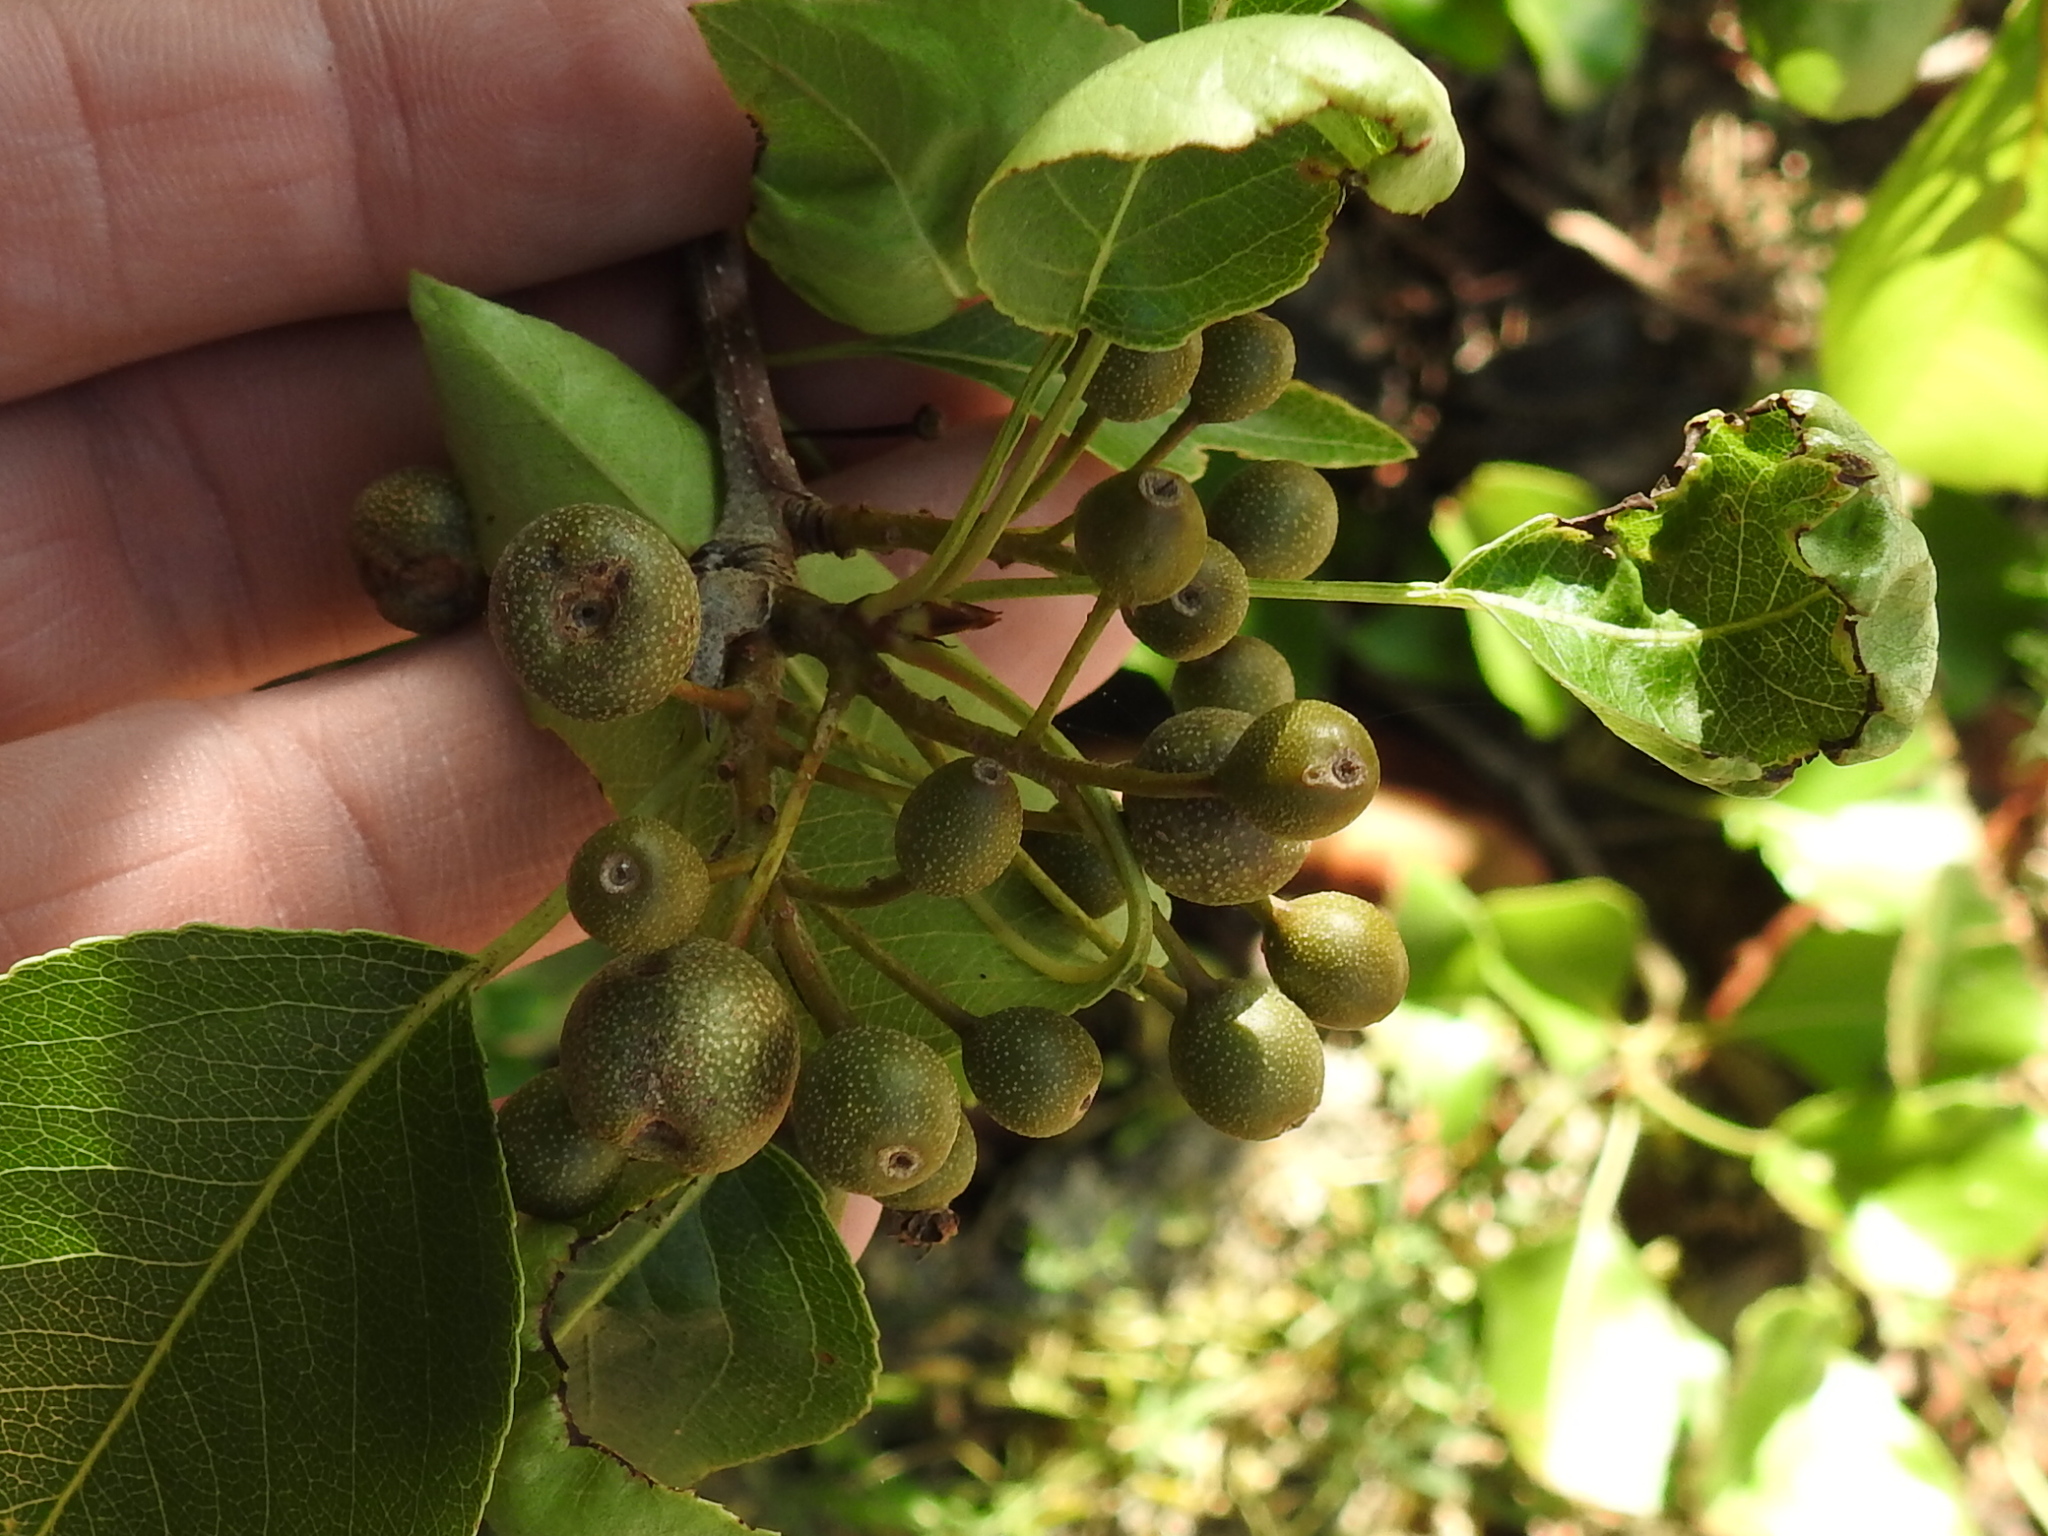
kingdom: Plantae
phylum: Tracheophyta
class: Magnoliopsida
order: Rosales
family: Rosaceae
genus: Pyrus
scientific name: Pyrus calleryana
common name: Callery pear
